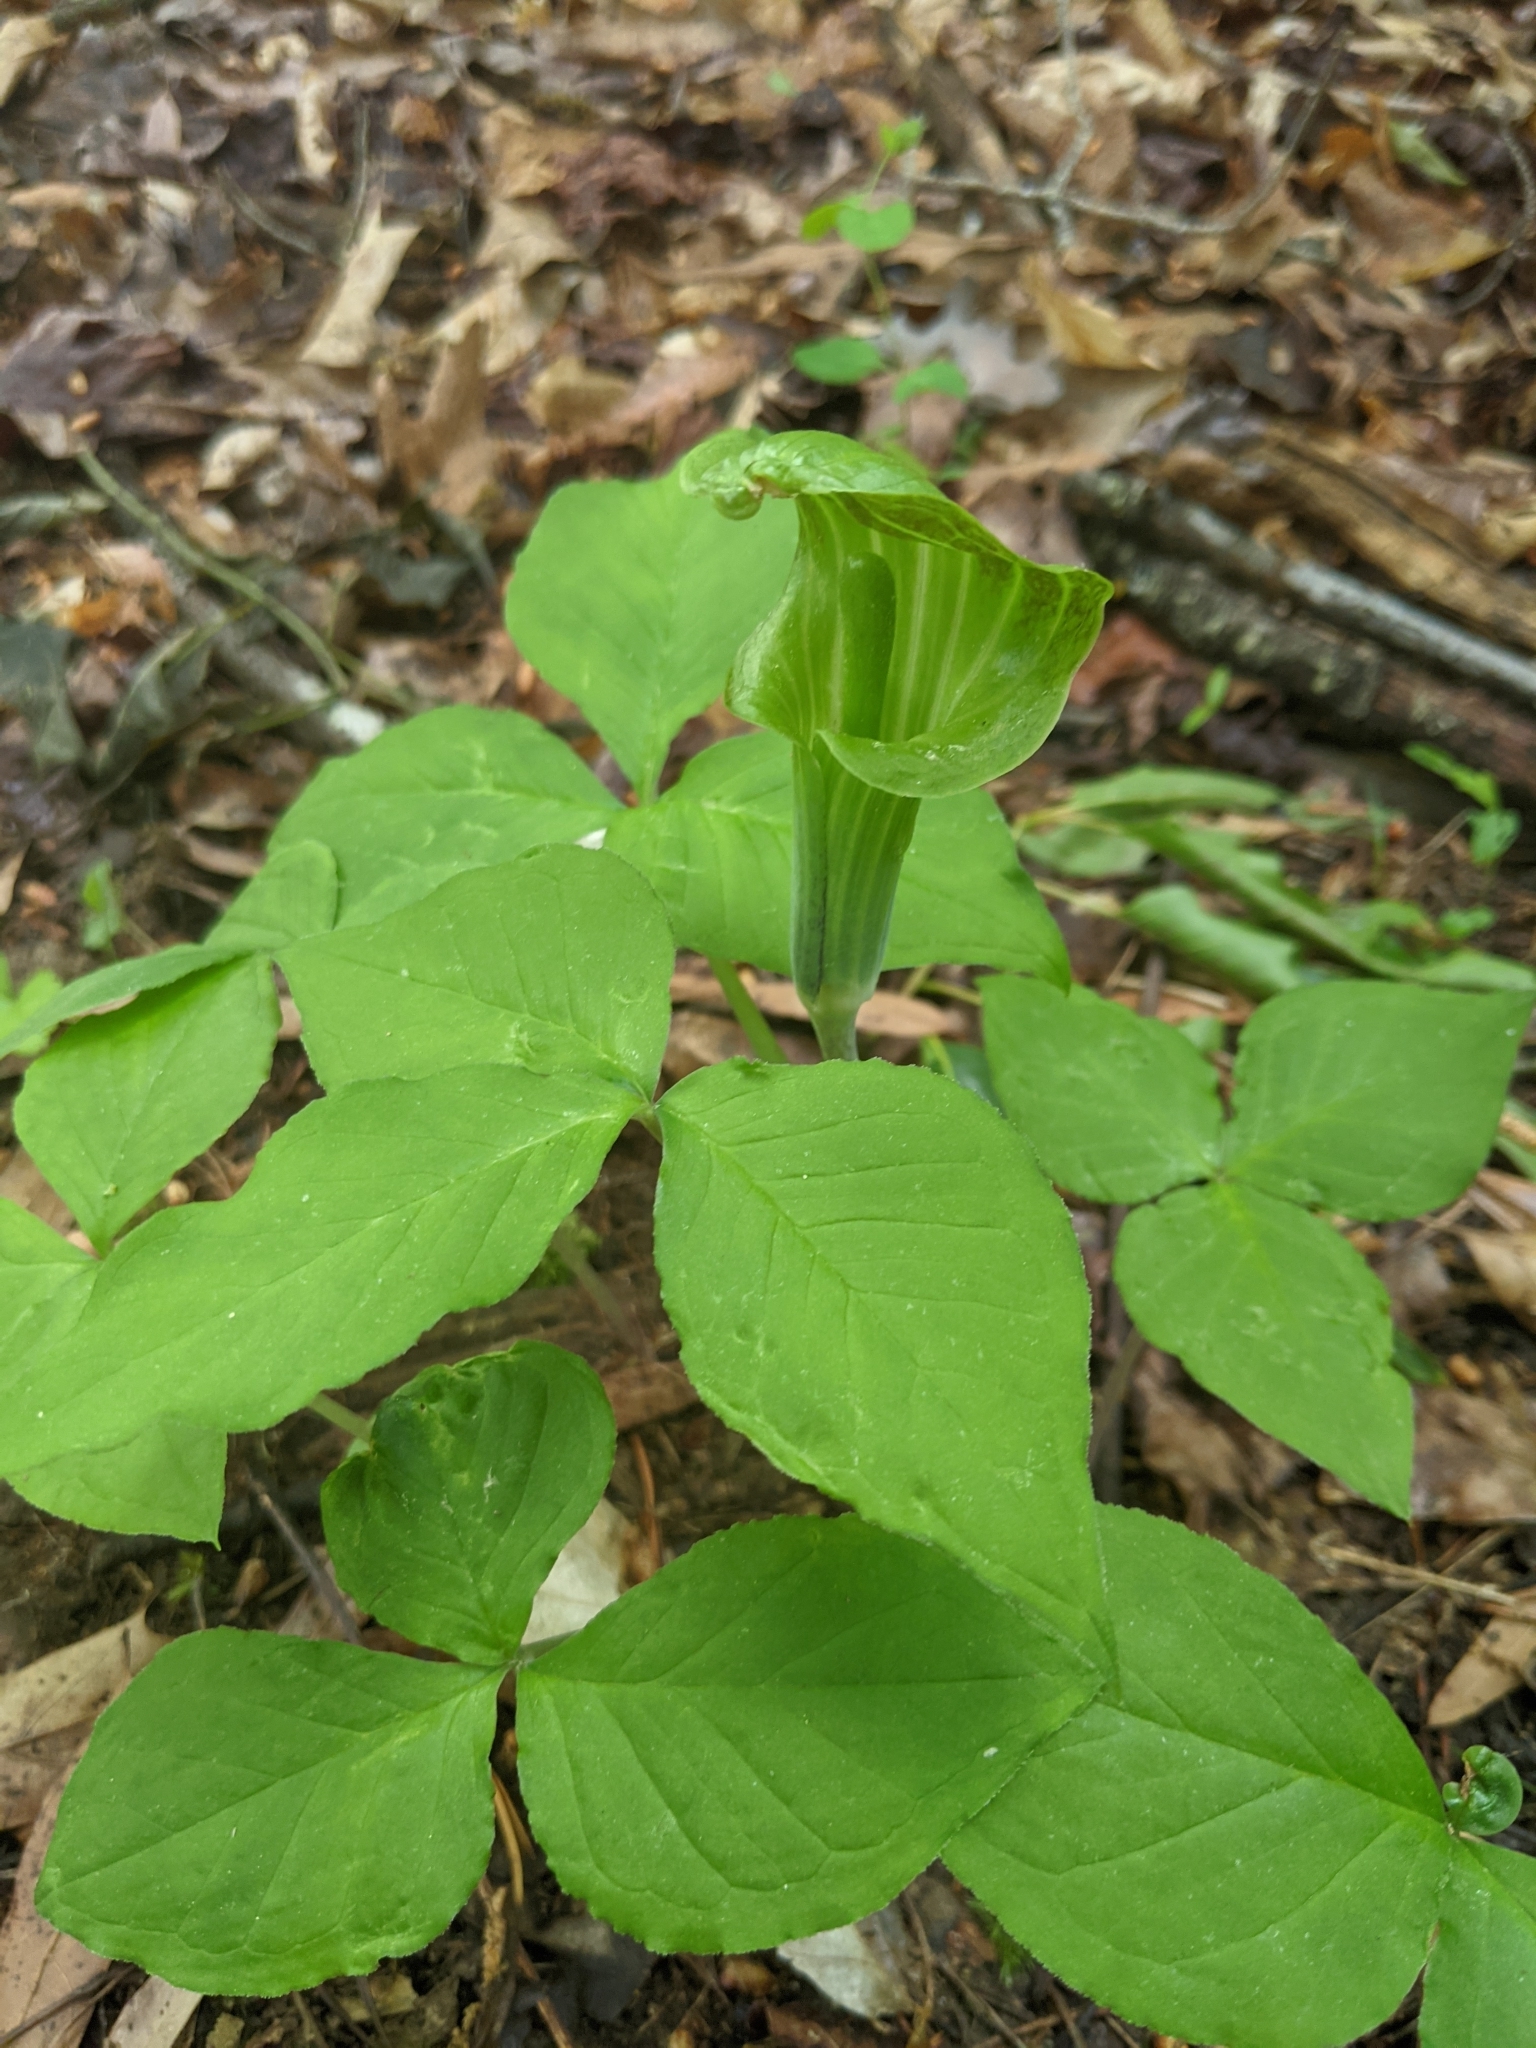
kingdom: Plantae
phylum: Tracheophyta
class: Liliopsida
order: Alismatales
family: Araceae
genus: Arisaema
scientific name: Arisaema triphyllum
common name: Jack-in-the-pulpit
